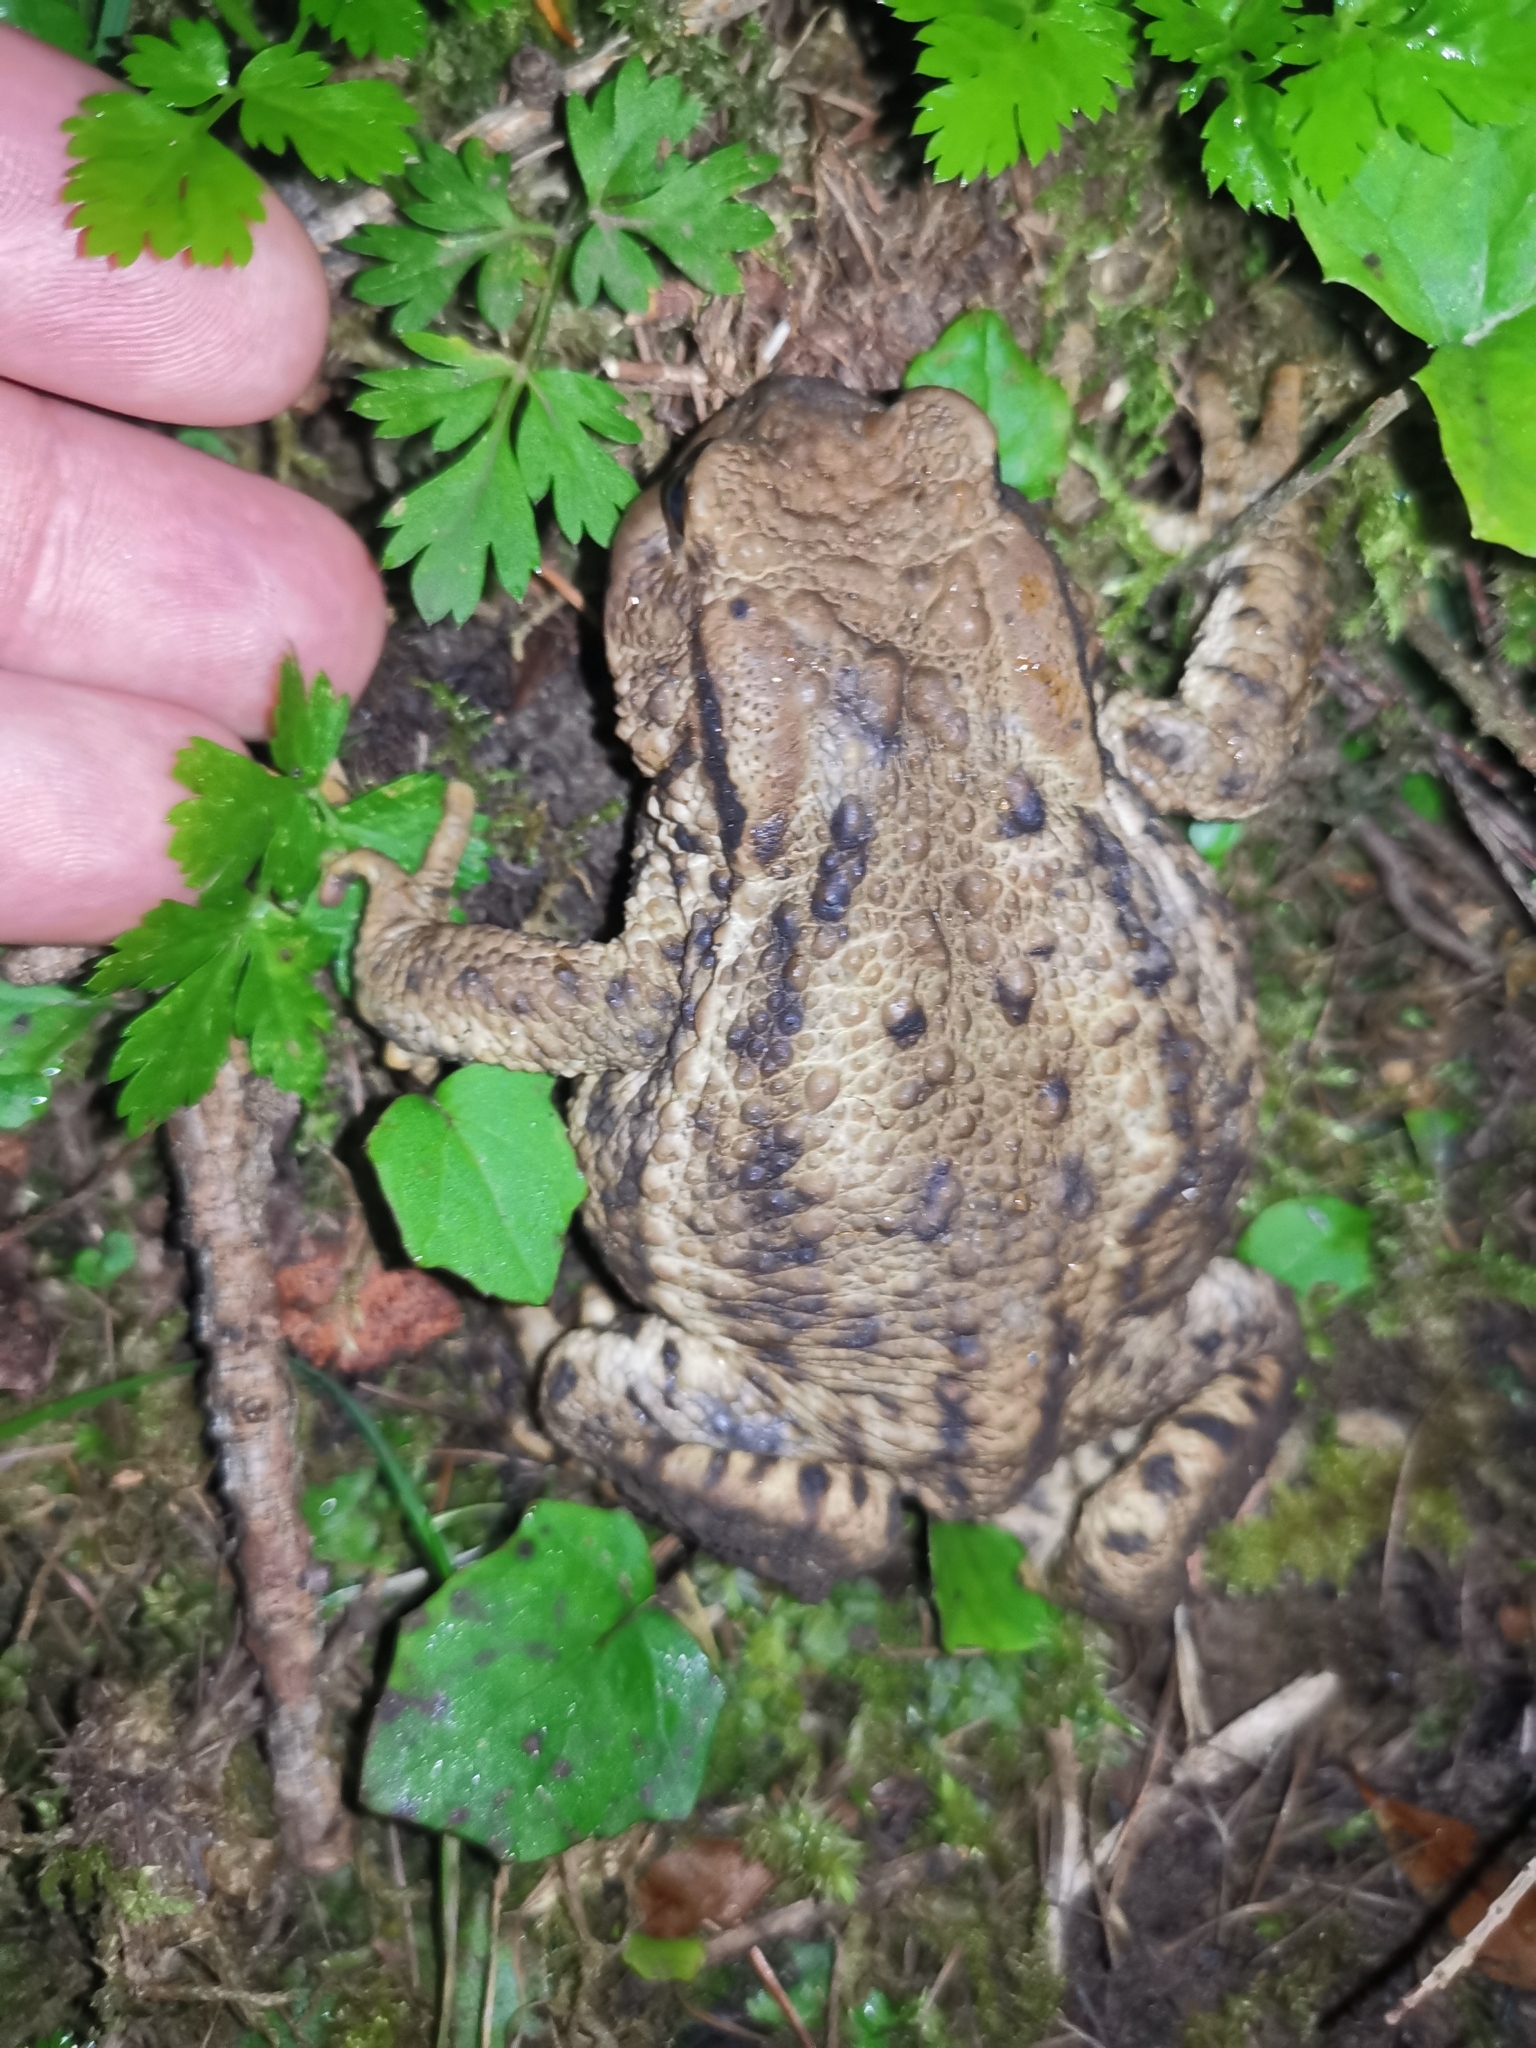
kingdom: Animalia
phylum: Chordata
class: Amphibia
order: Anura
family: Bufonidae
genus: Bufo
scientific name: Bufo bufo
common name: Common toad
